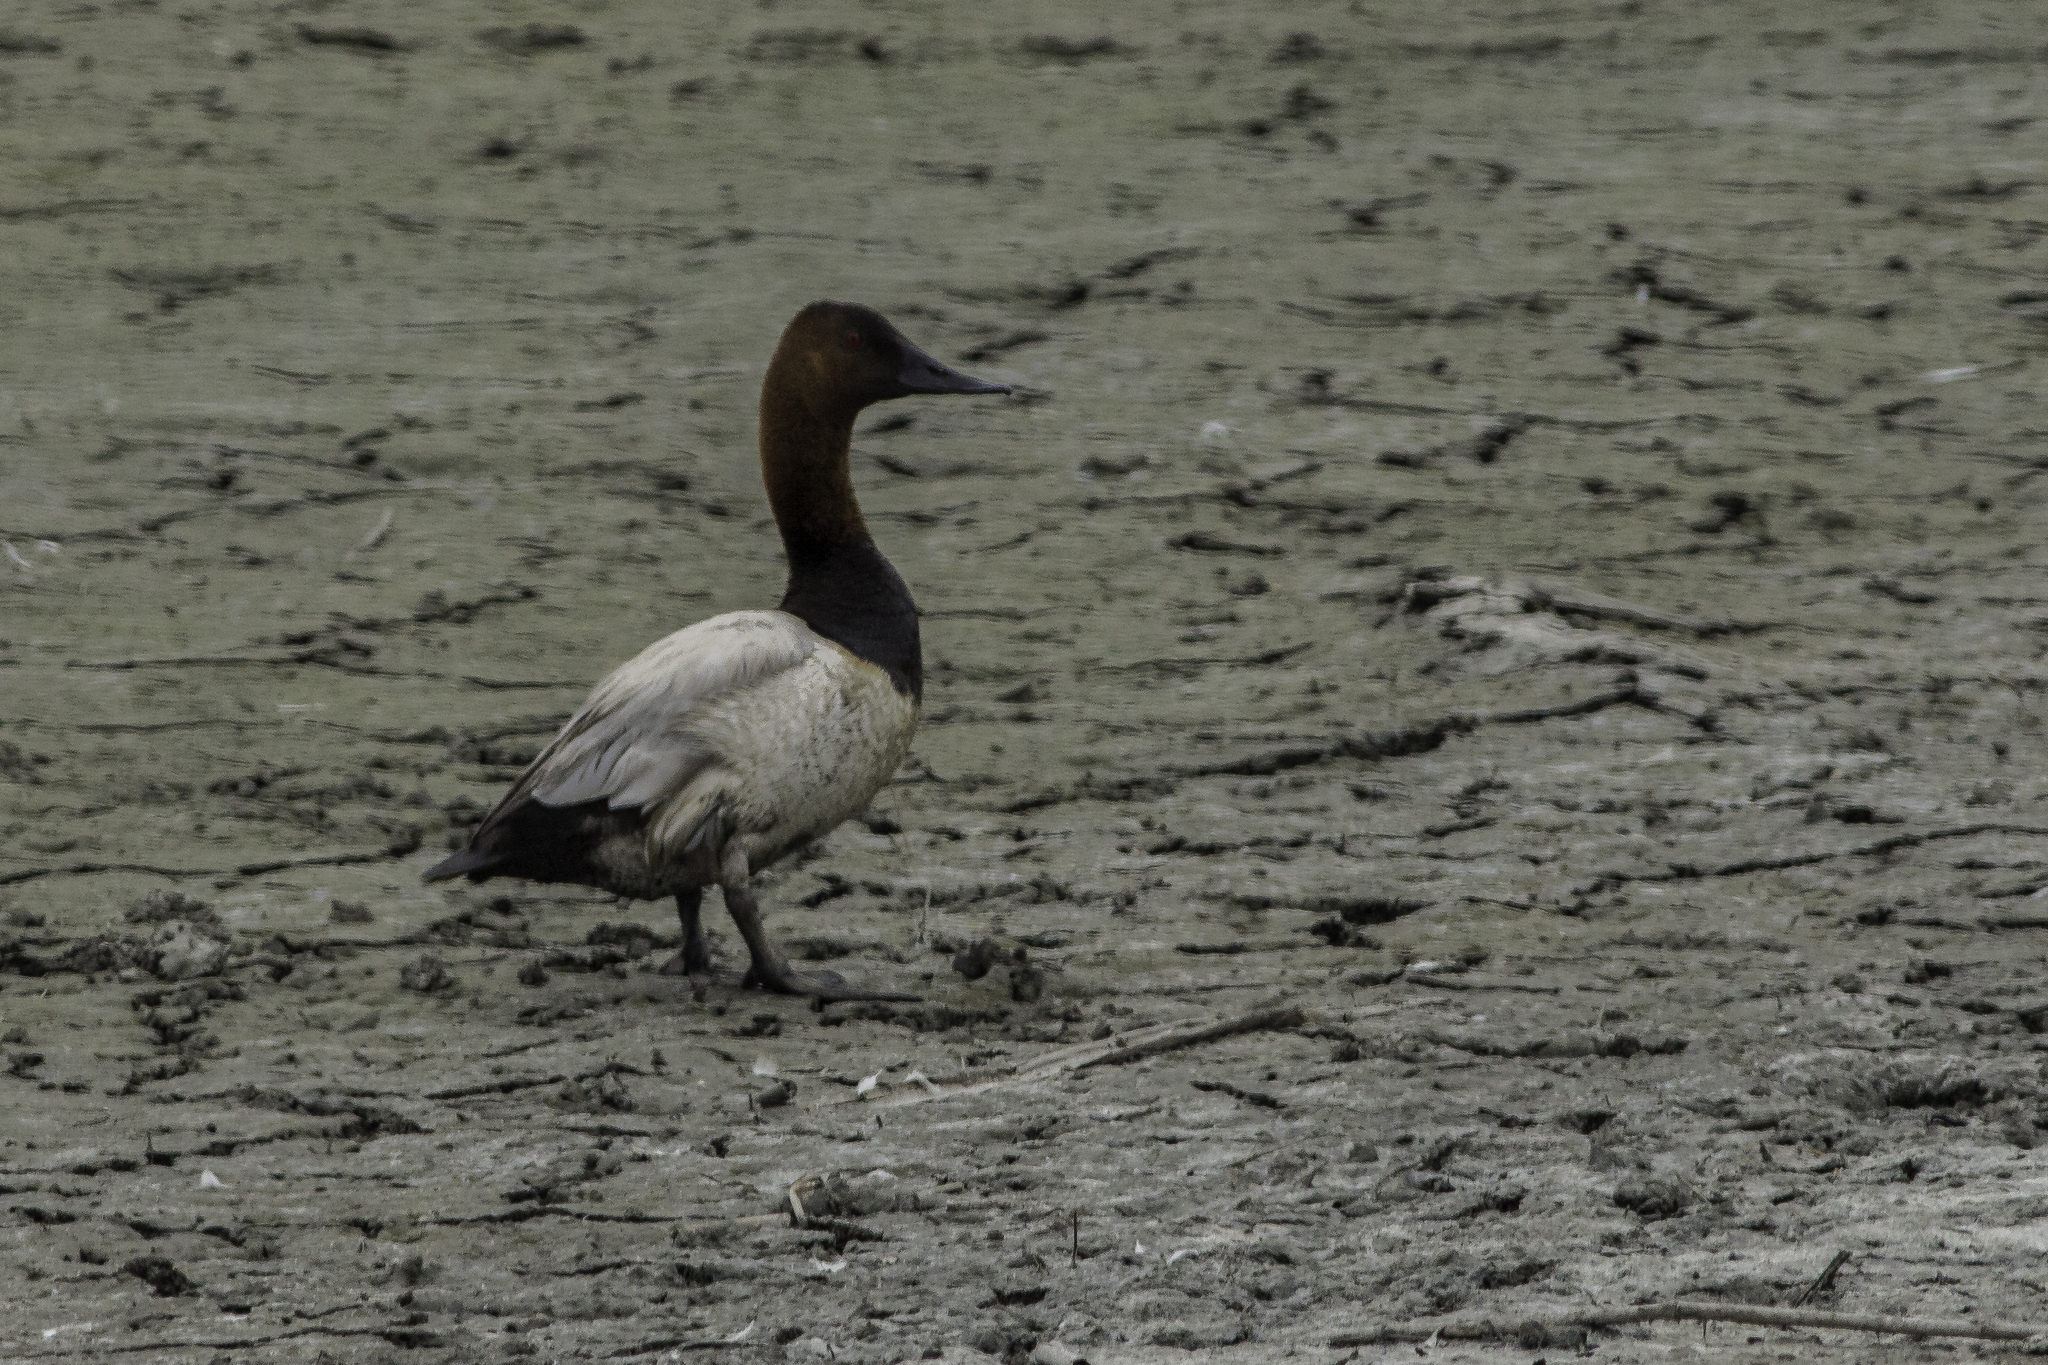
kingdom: Animalia
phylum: Chordata
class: Aves
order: Anseriformes
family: Anatidae
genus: Aythya
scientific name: Aythya valisineria
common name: Canvasback
